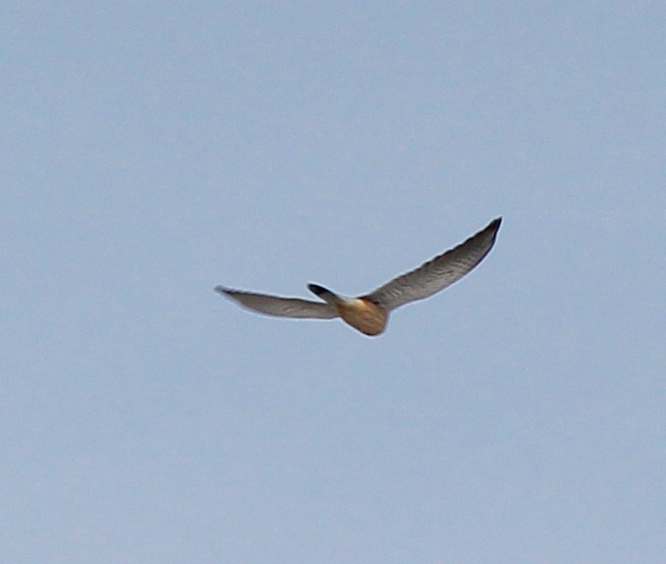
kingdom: Animalia
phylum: Chordata
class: Aves
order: Falconiformes
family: Falconidae
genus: Falco
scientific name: Falco columbarius
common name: Merlin
